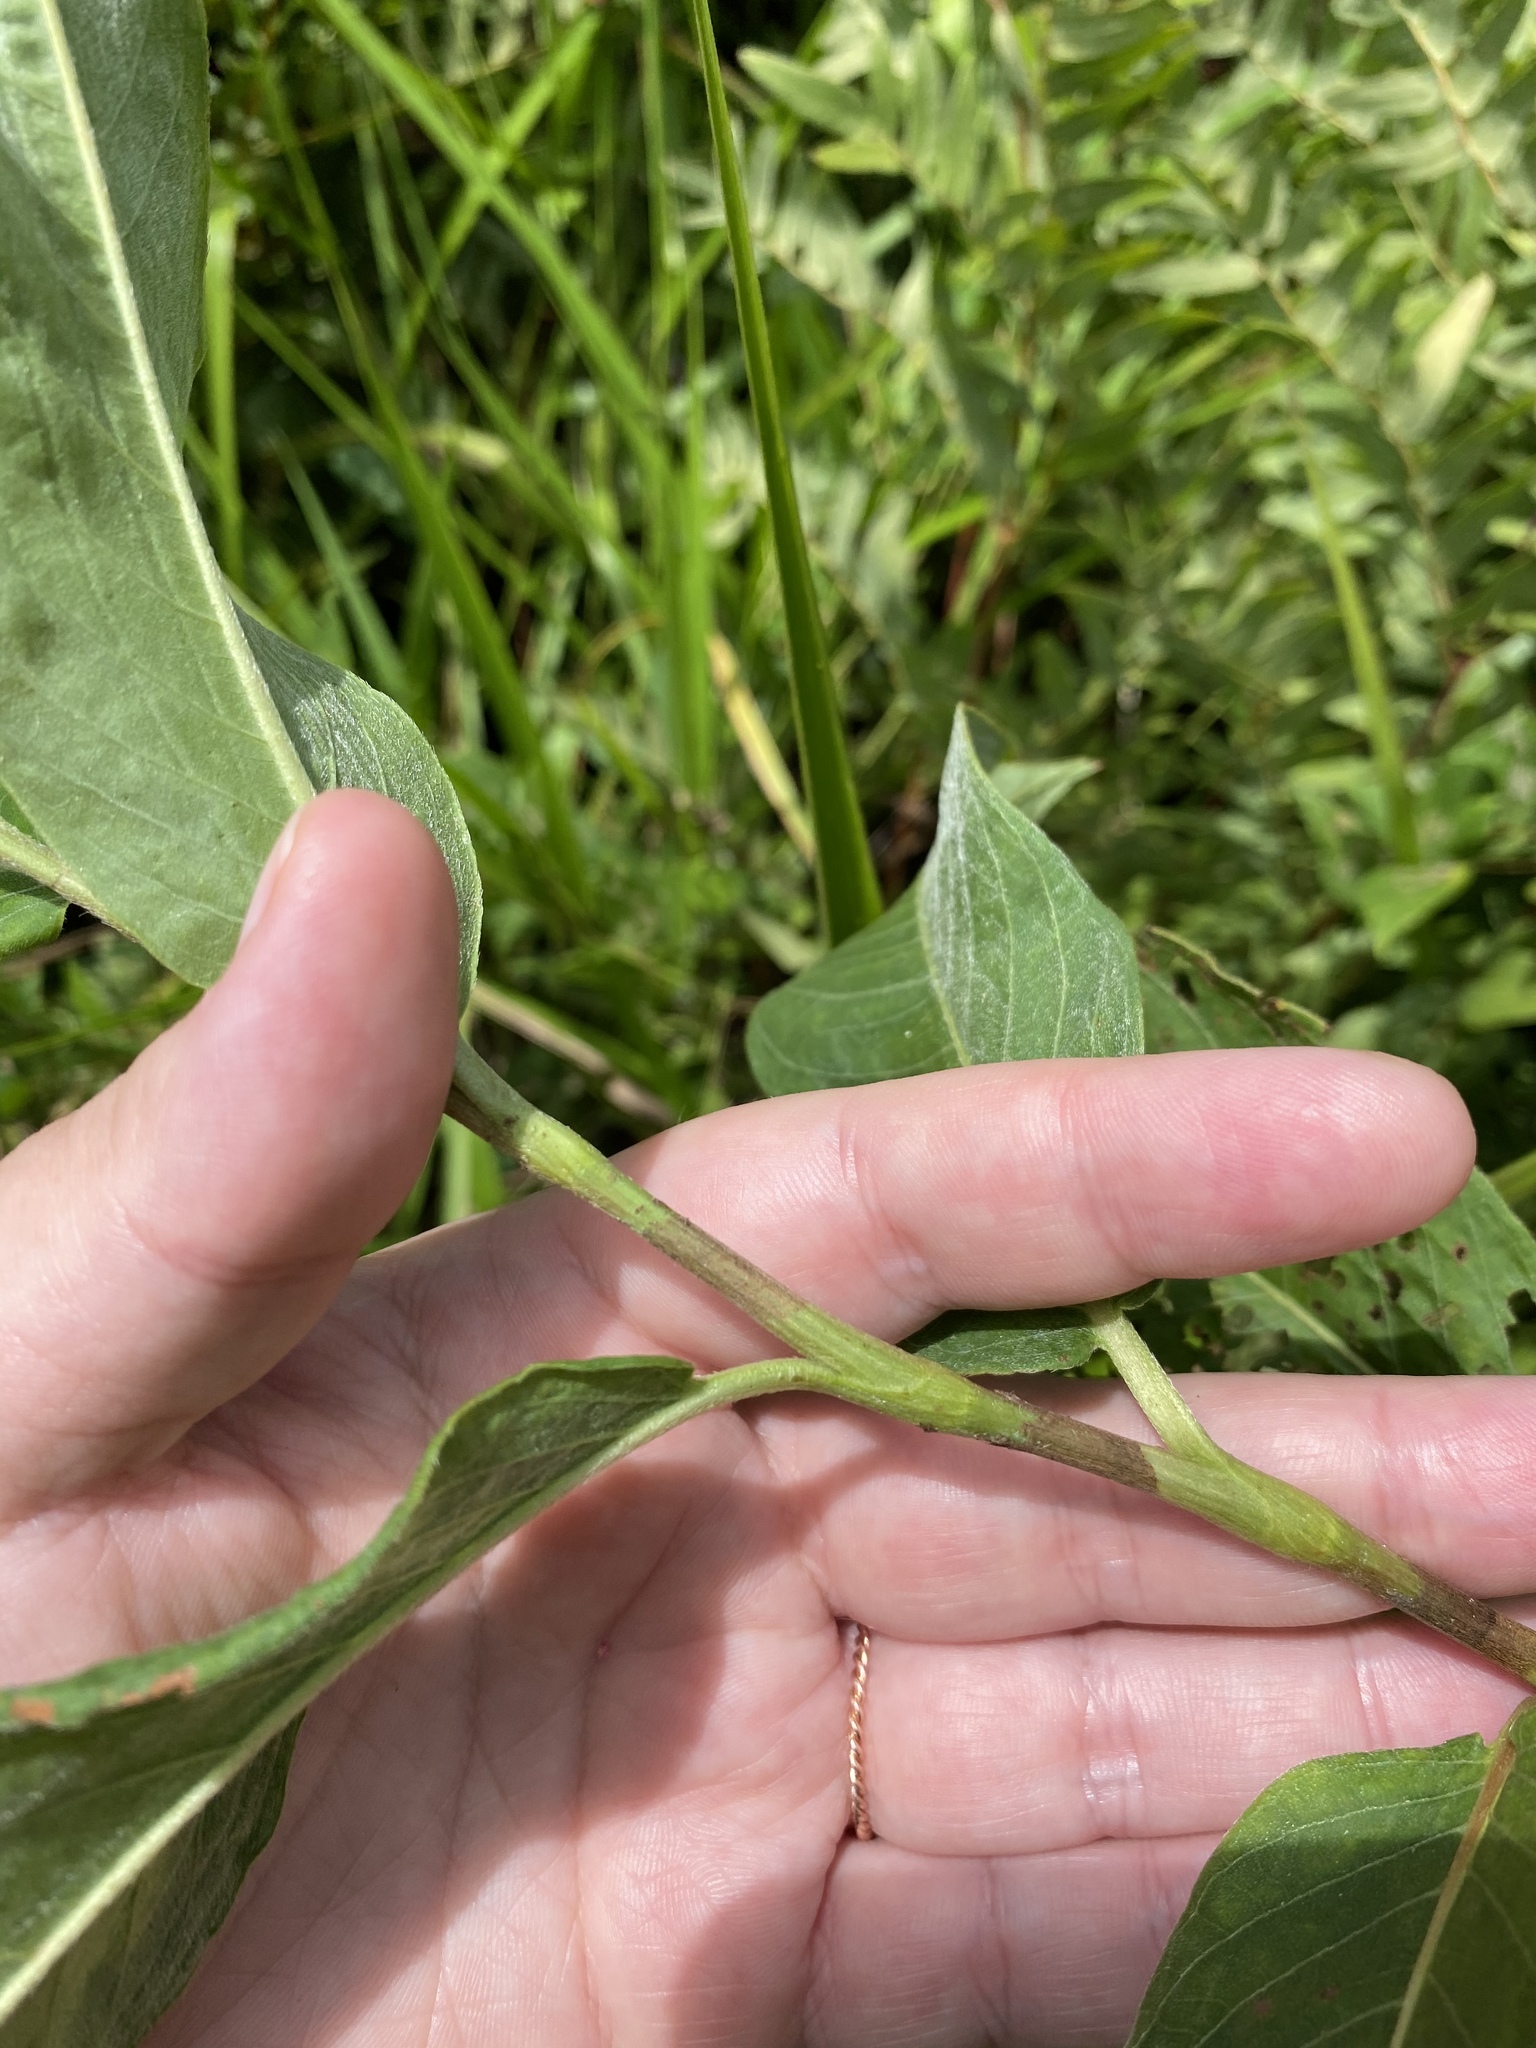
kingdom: Plantae
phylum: Tracheophyta
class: Magnoliopsida
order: Caryophyllales
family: Polygonaceae
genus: Persicaria
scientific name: Persicaria amphibia
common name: Amphibious bistort
